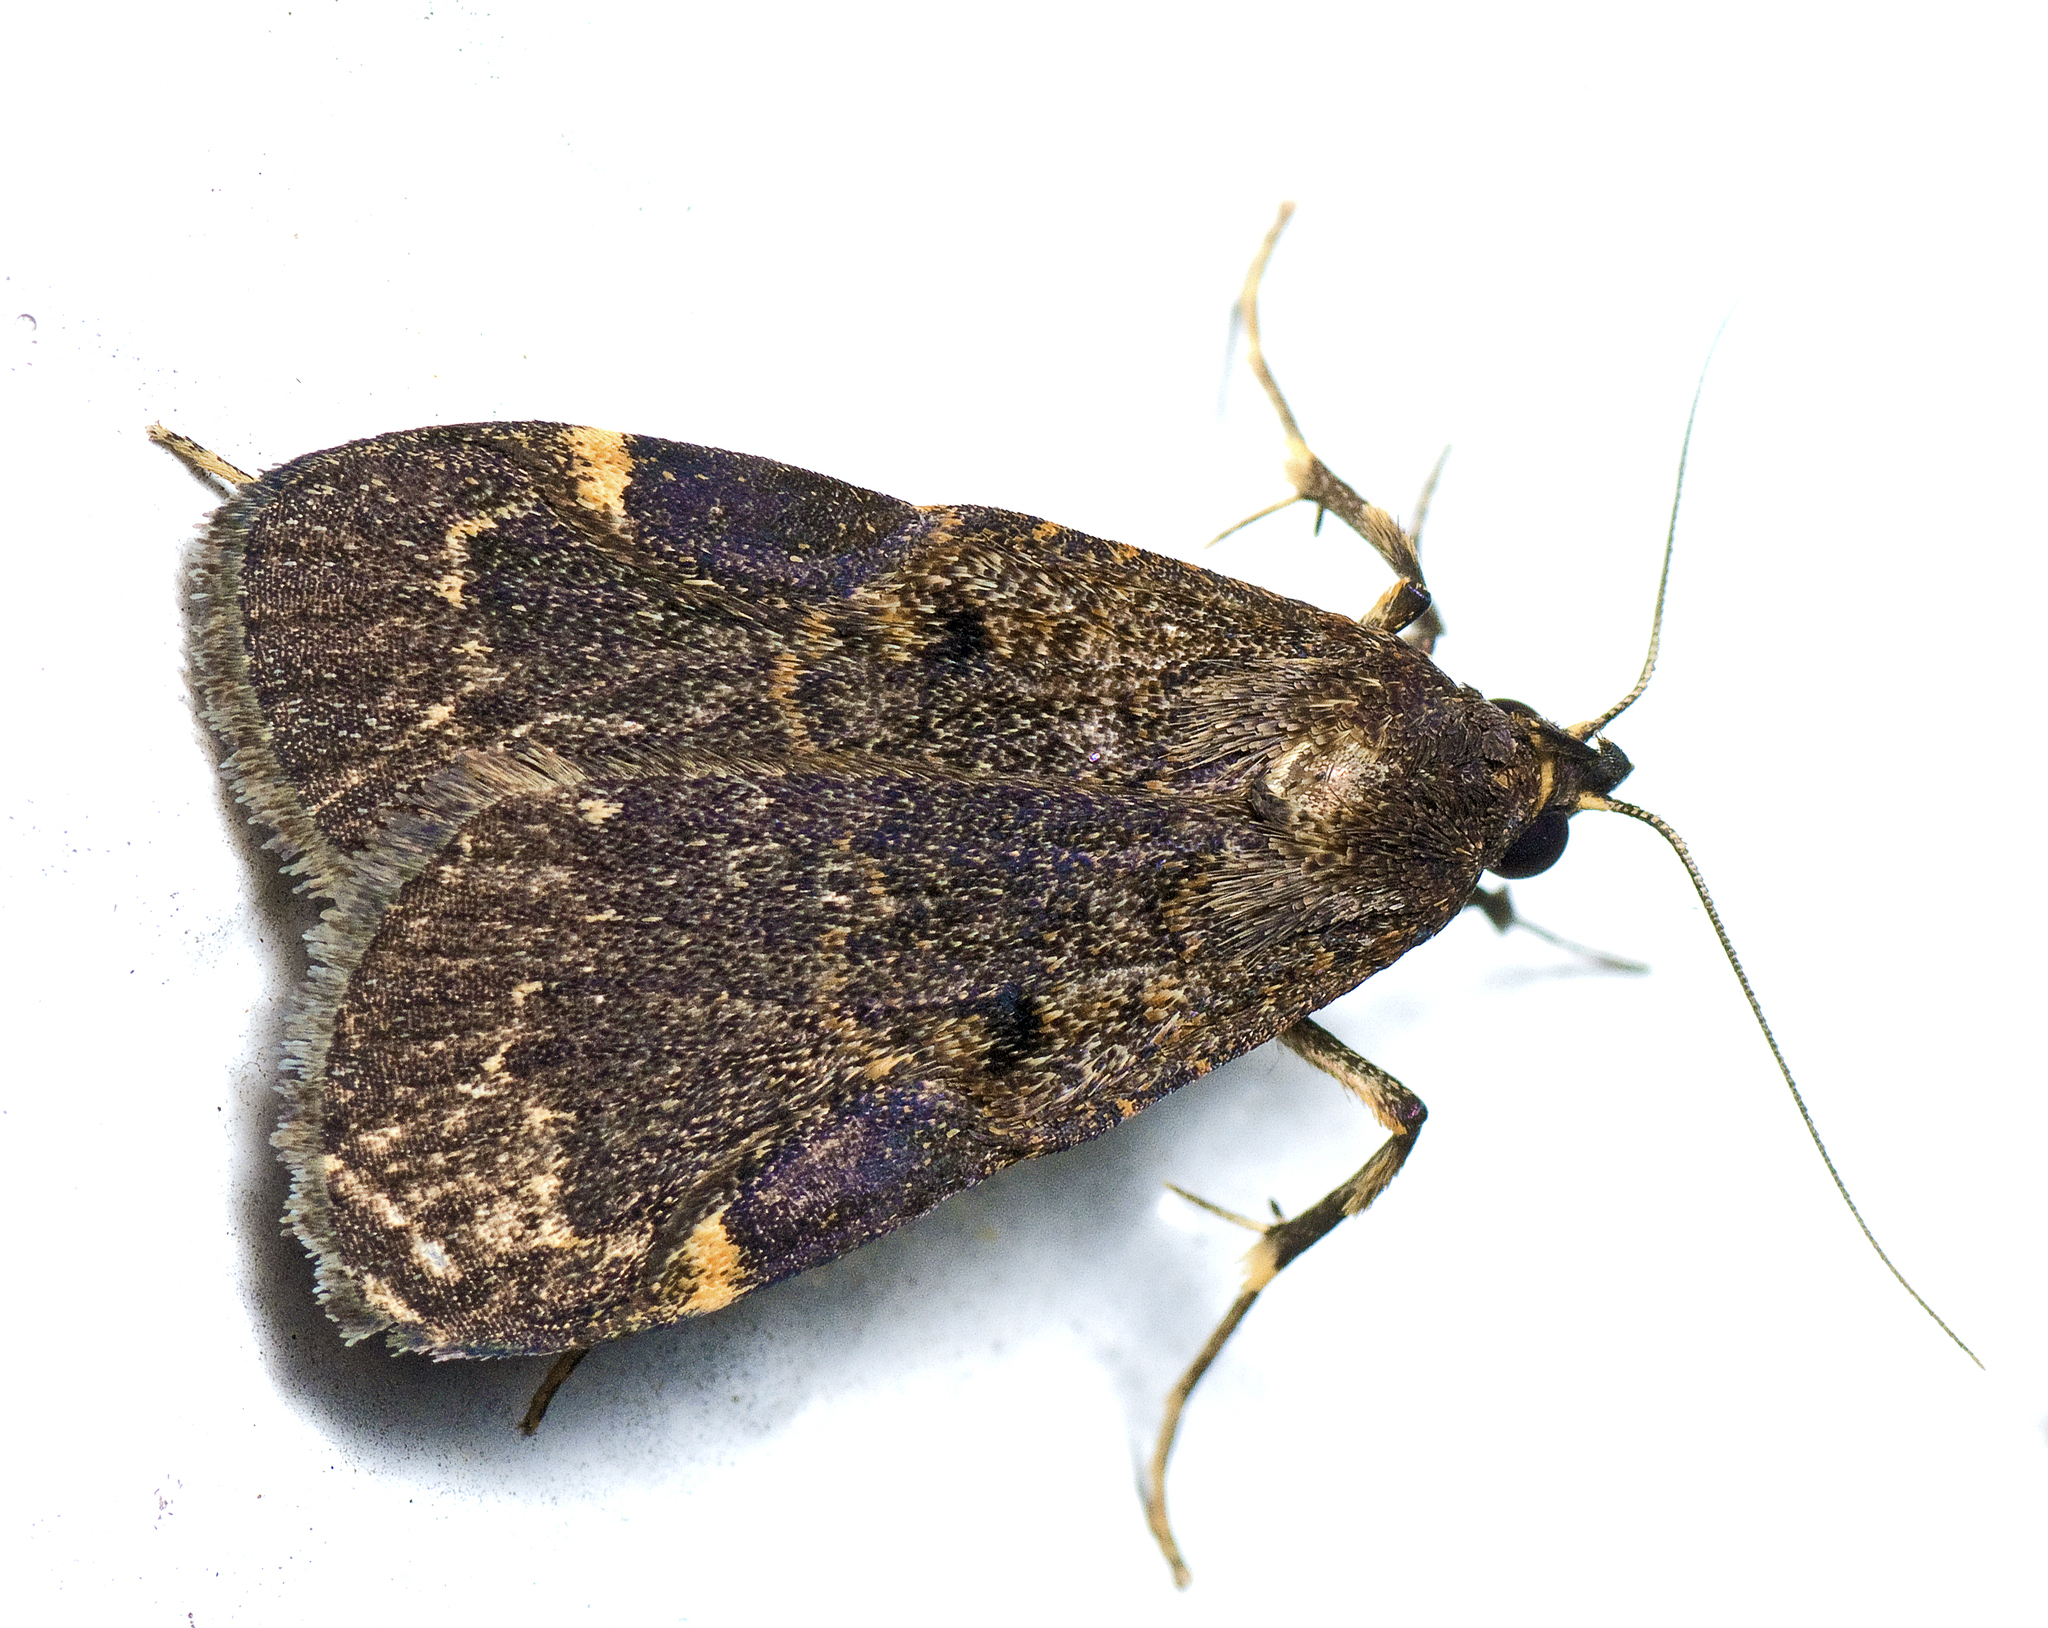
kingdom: Animalia
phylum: Arthropoda
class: Insecta
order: Lepidoptera
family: Erebidae
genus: Hydrillodes
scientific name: Hydrillodes funestalis
